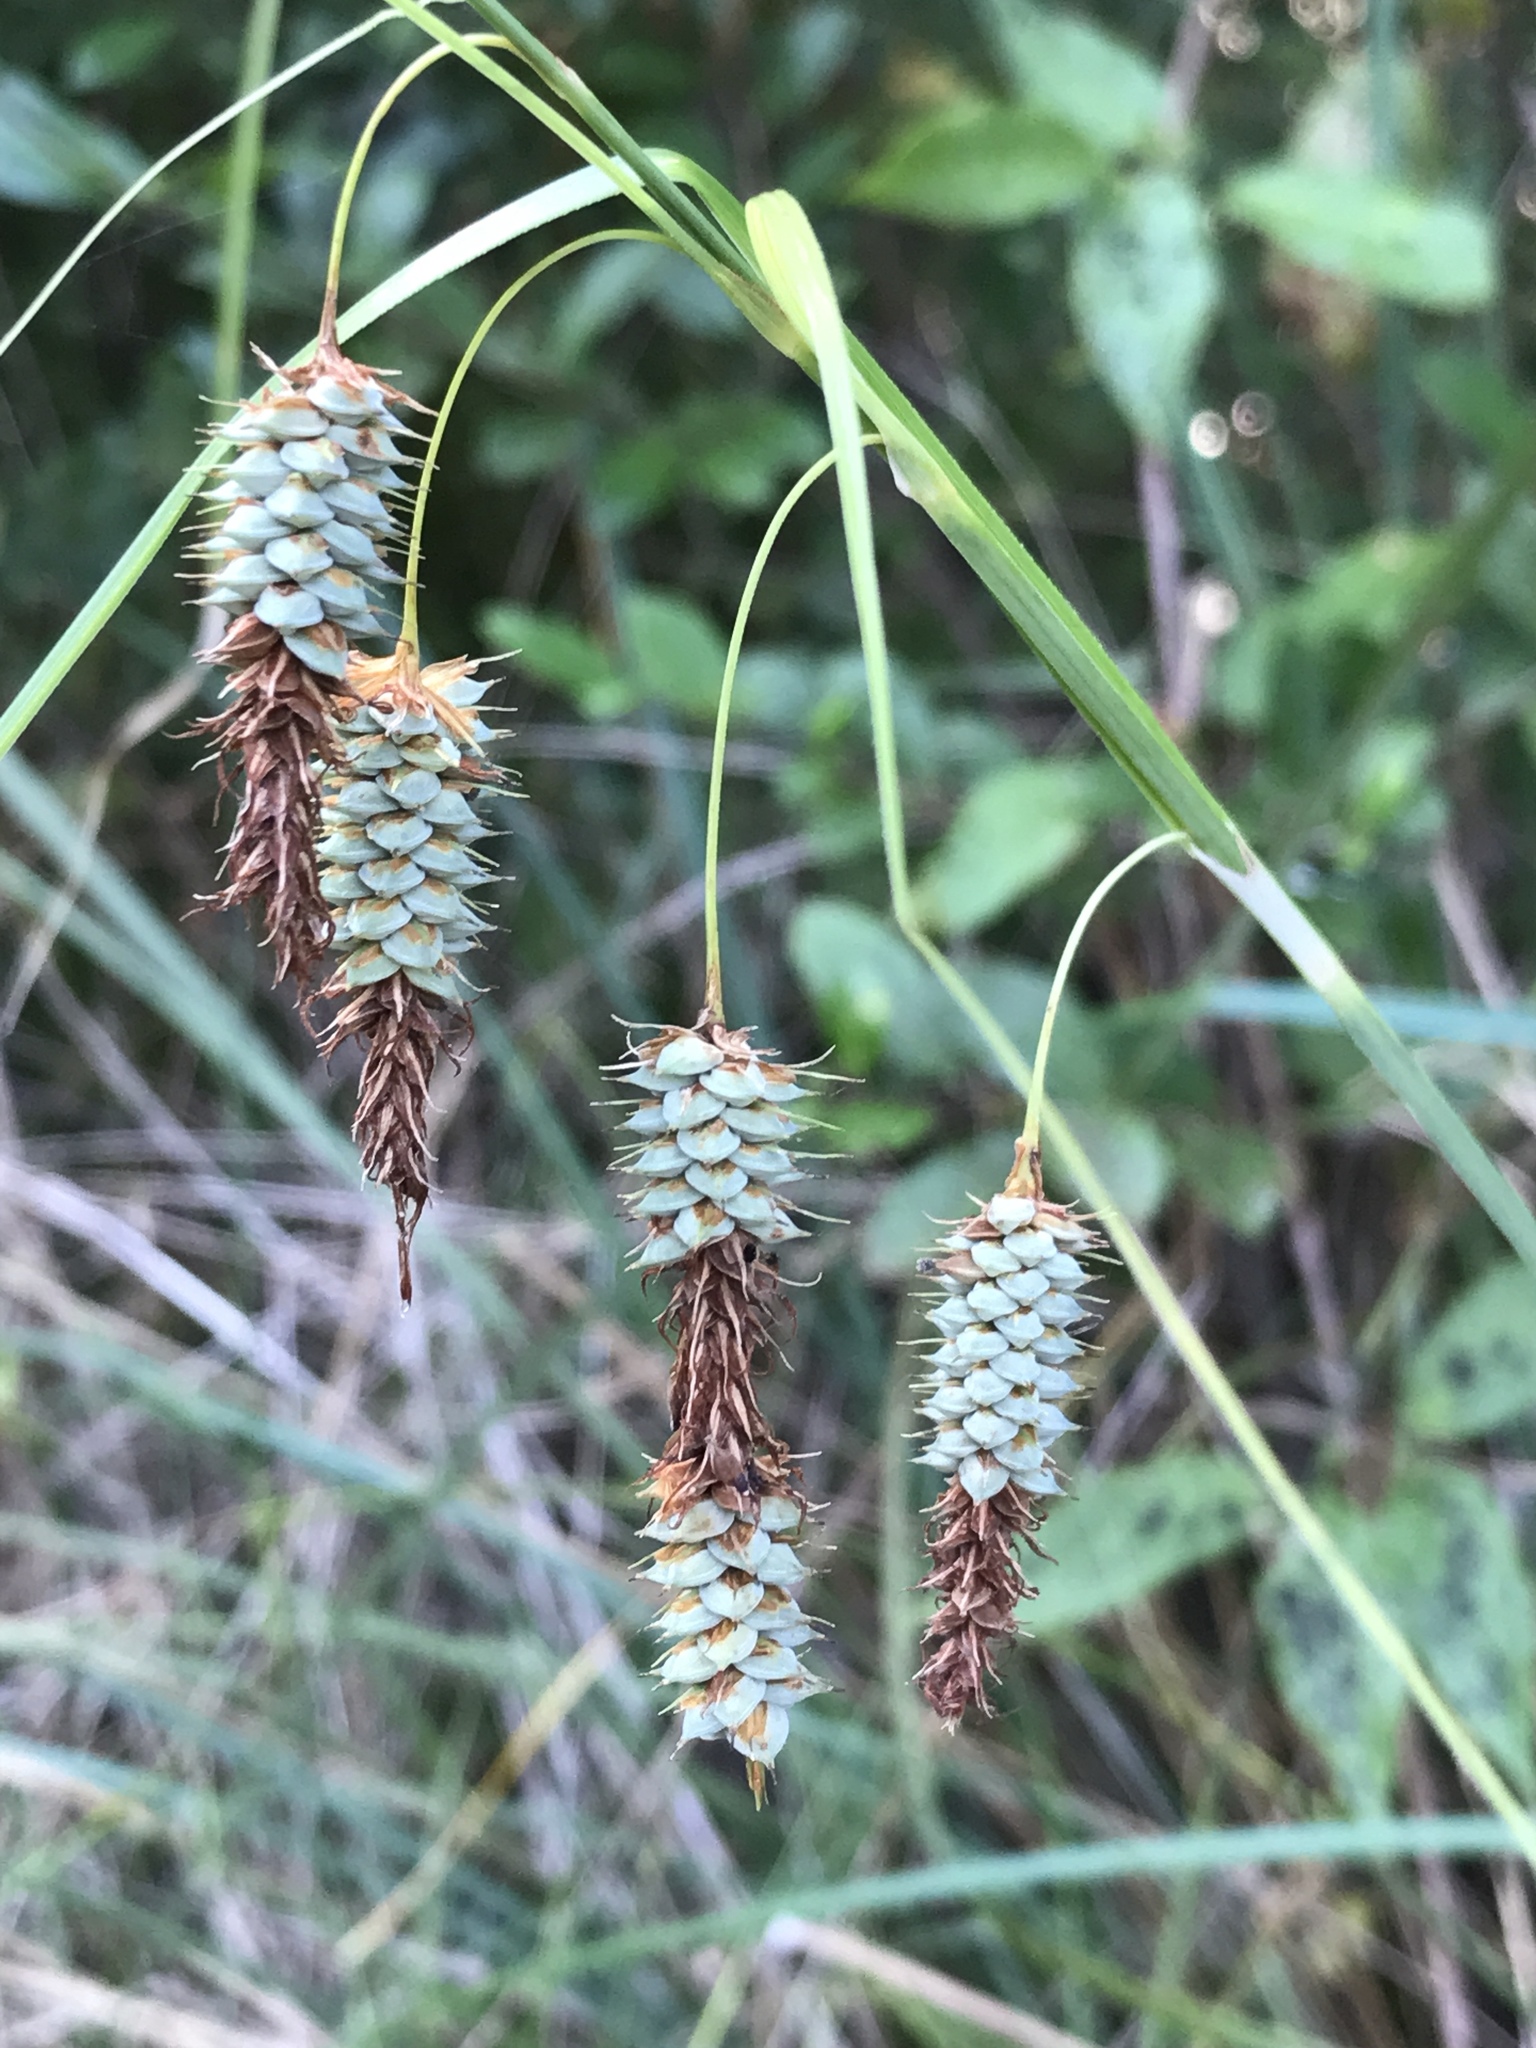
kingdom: Plantae
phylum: Tracheophyta
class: Liliopsida
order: Poales
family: Cyperaceae
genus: Carex
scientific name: Carex glaucescens
